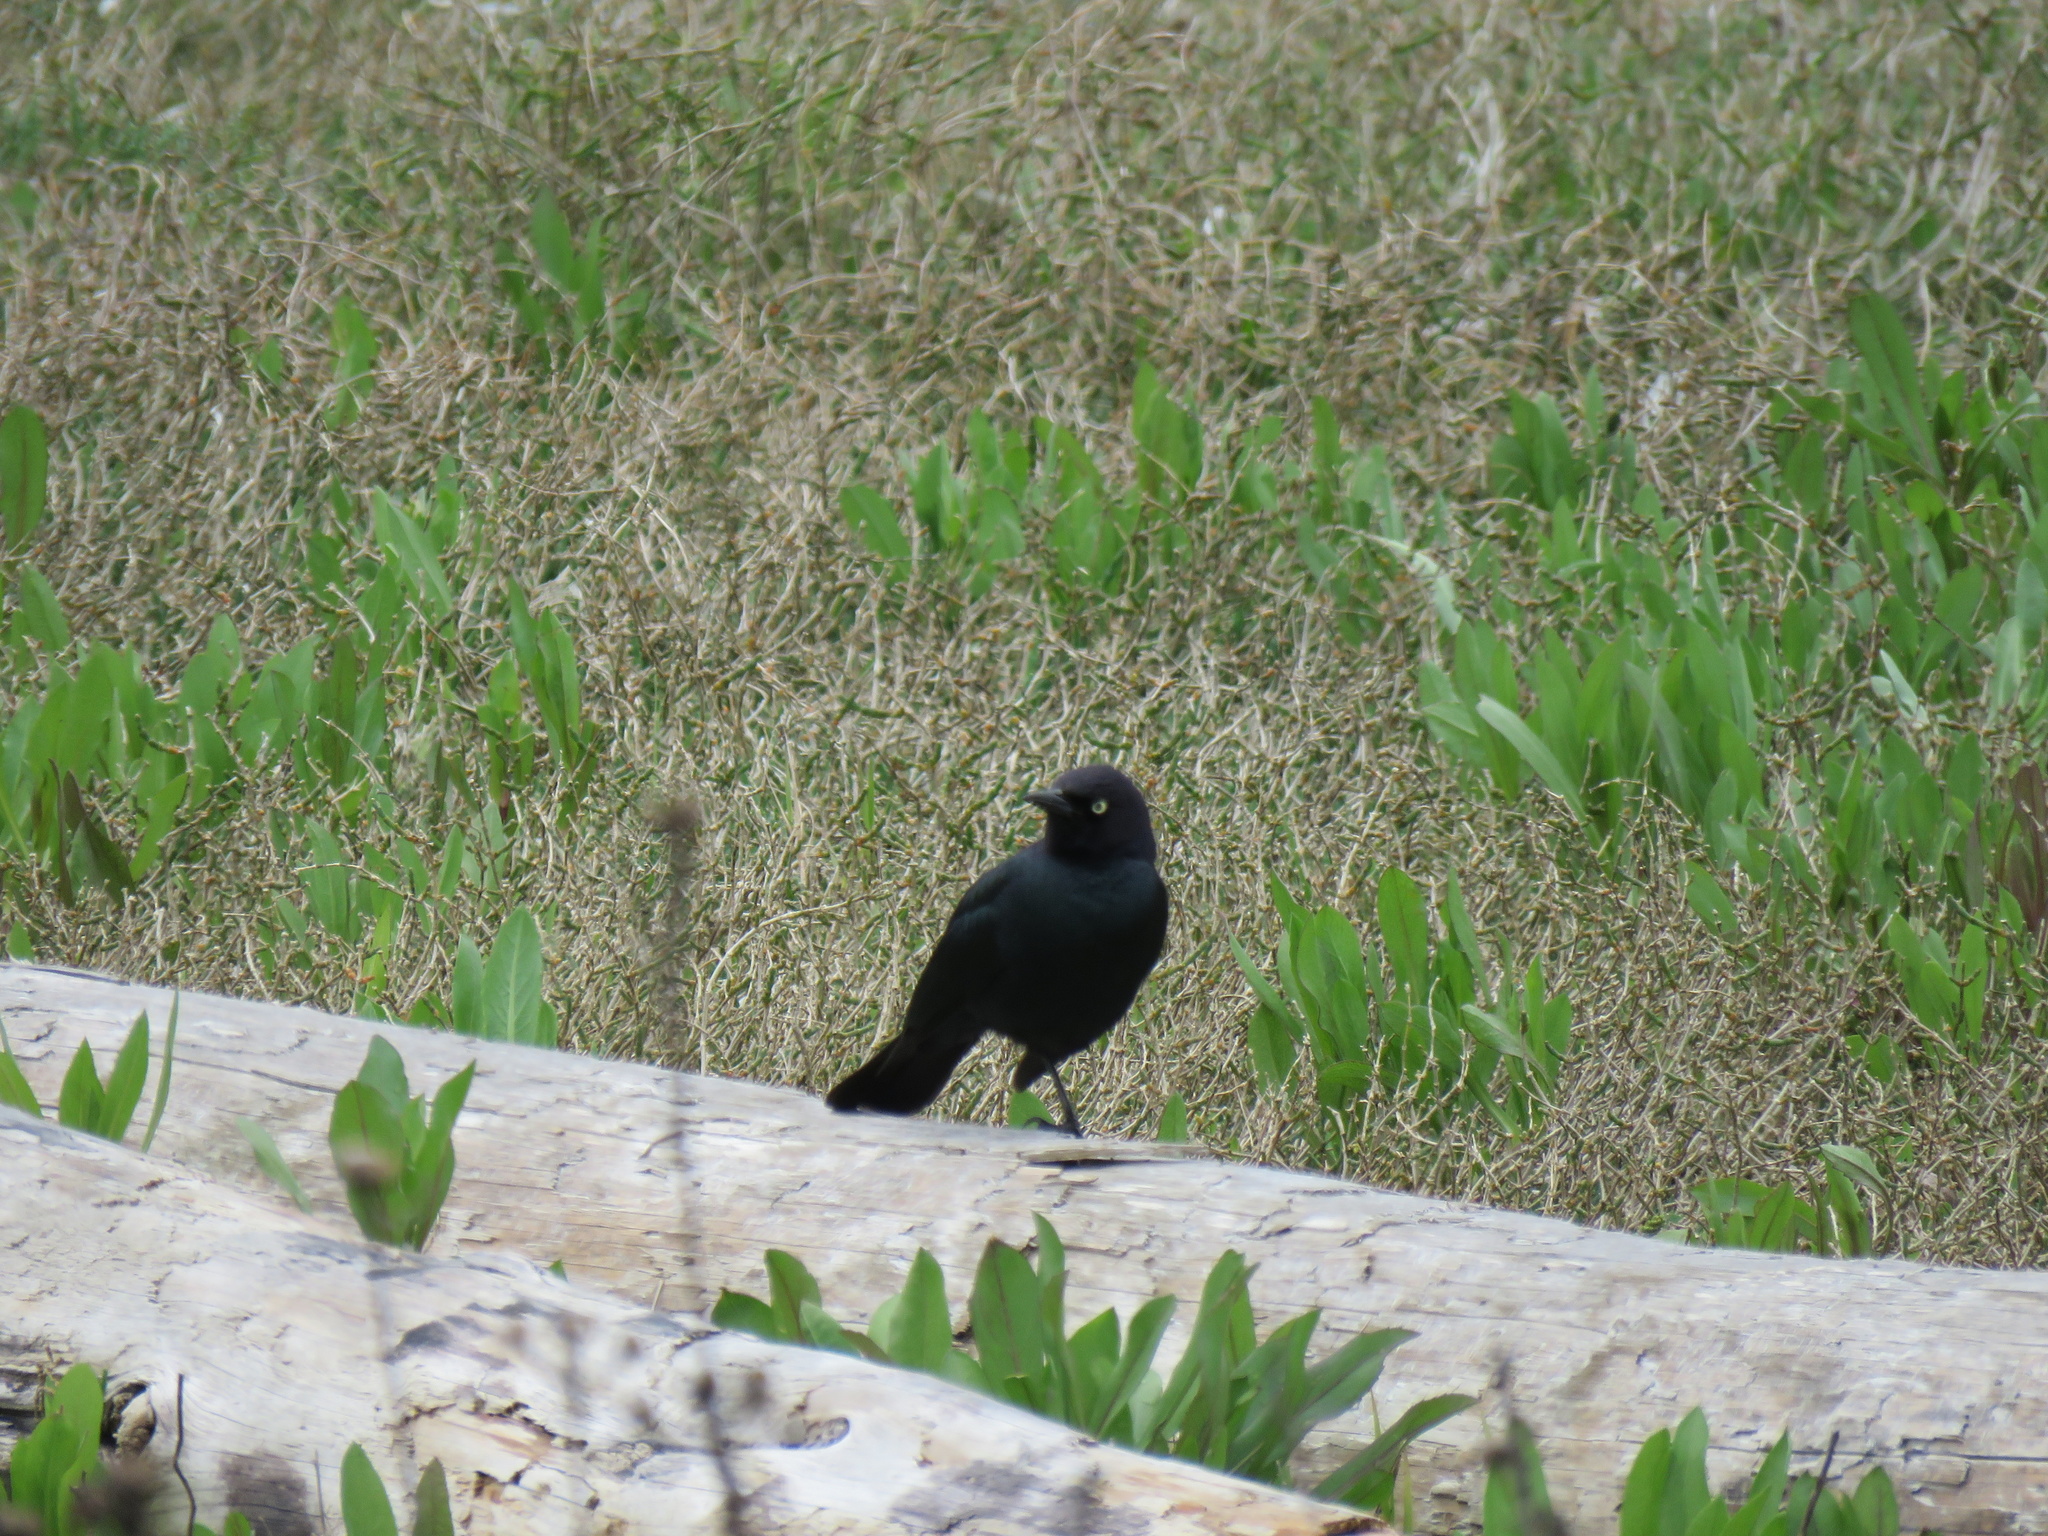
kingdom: Animalia
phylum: Chordata
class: Aves
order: Passeriformes
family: Icteridae
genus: Euphagus
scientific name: Euphagus cyanocephalus
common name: Brewer's blackbird
